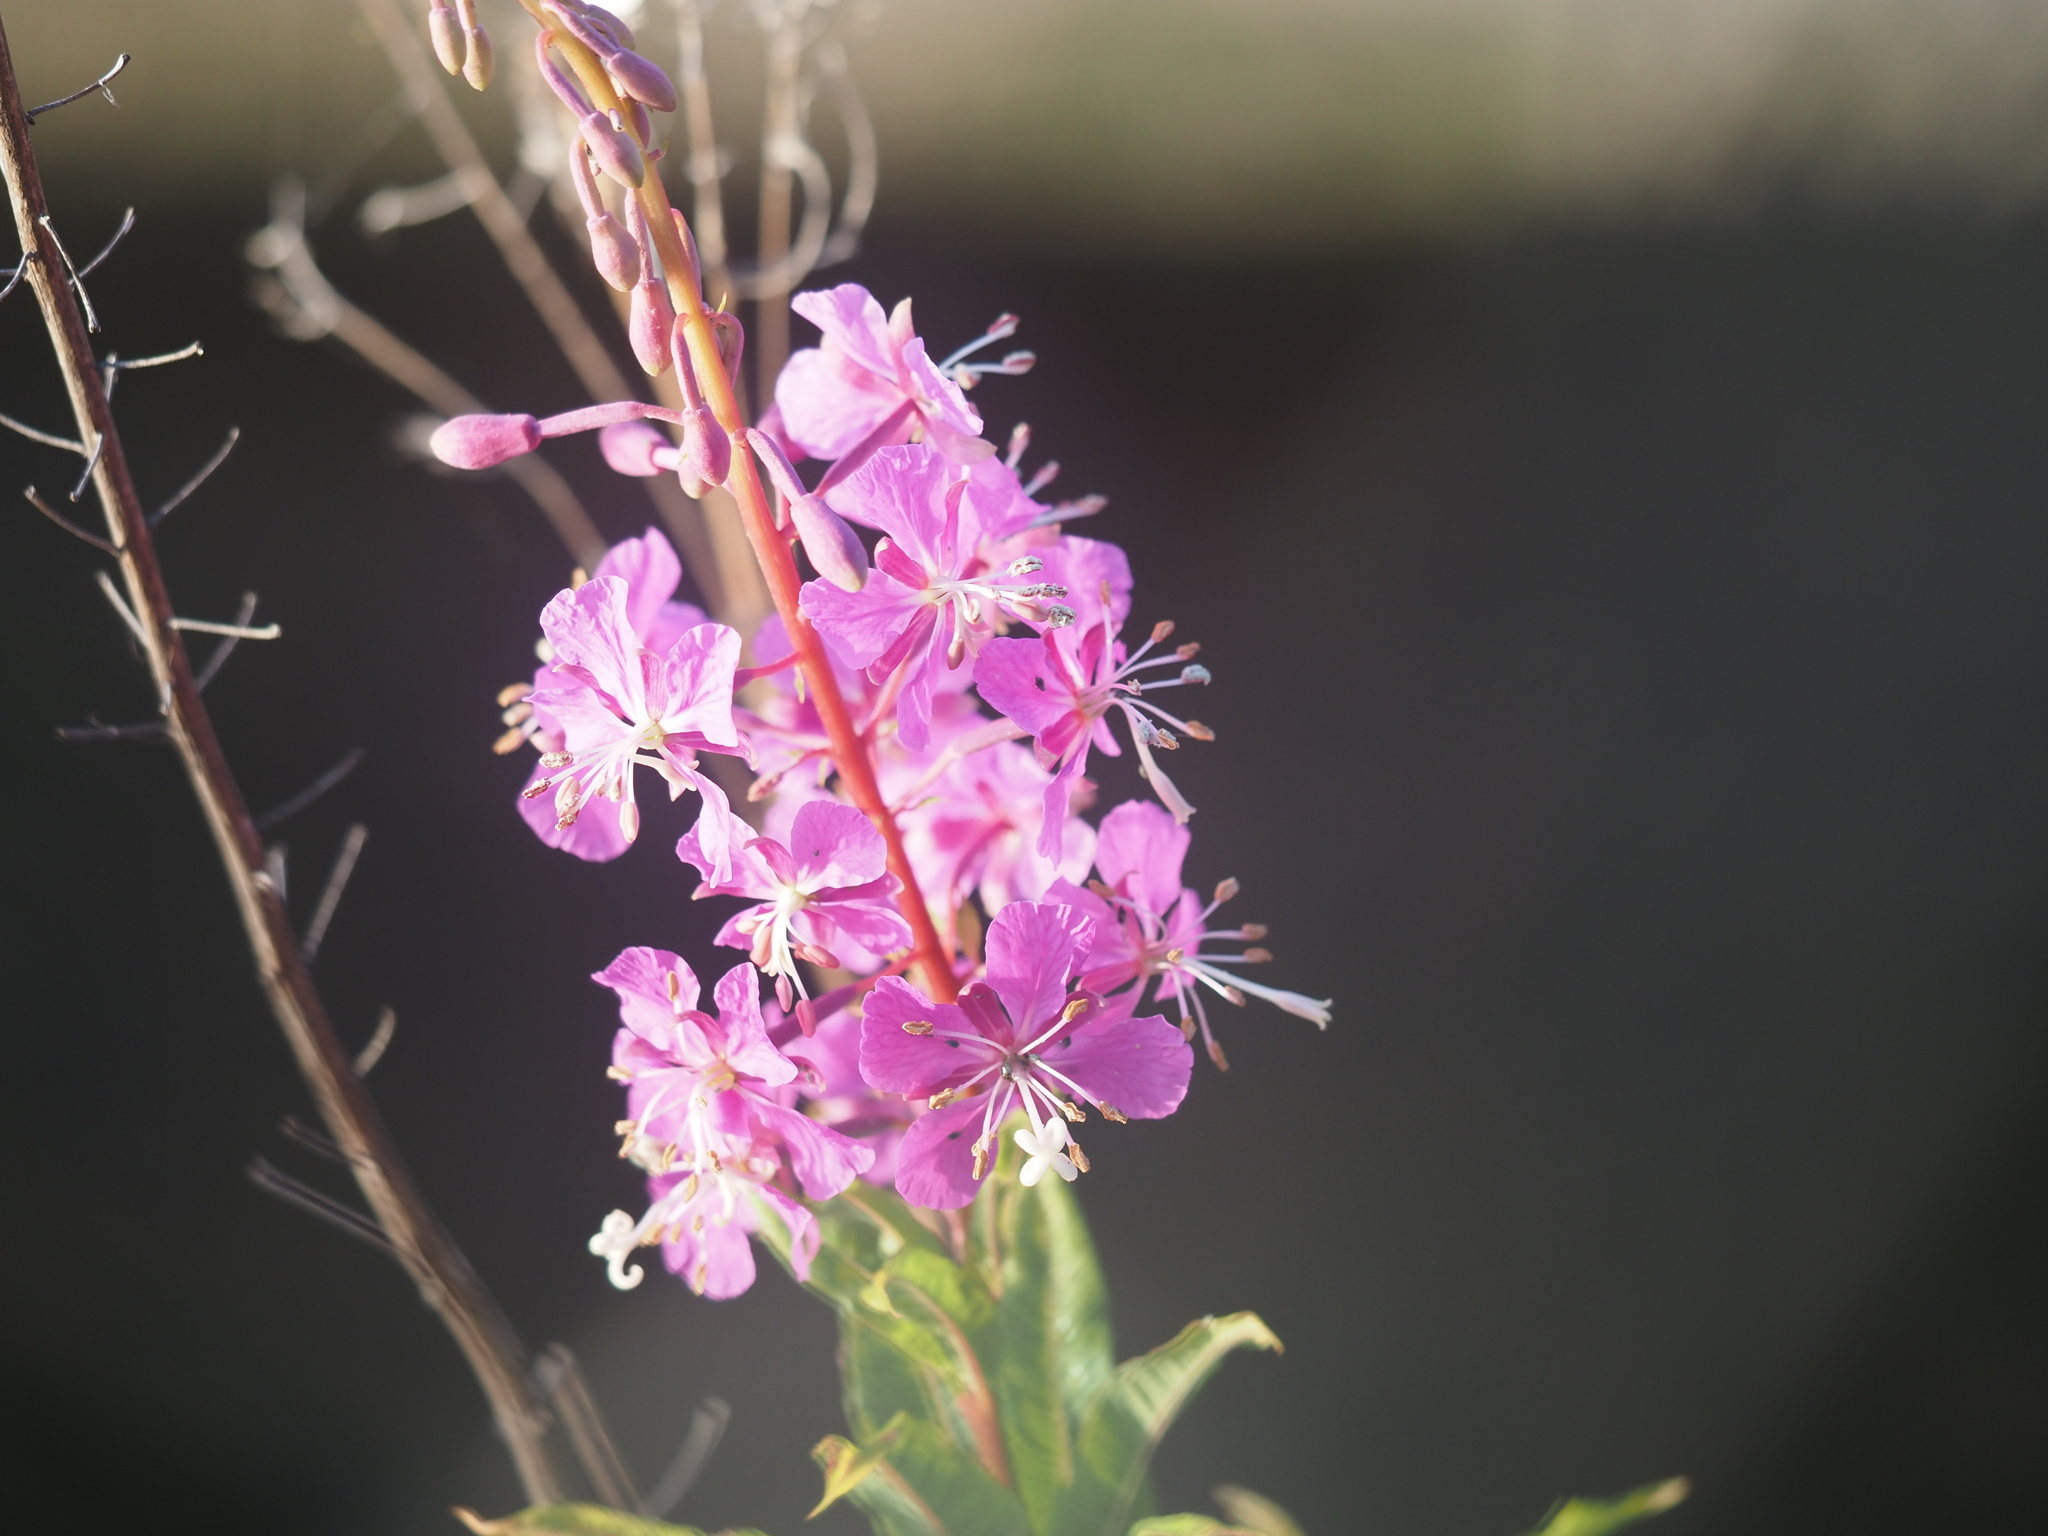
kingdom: Plantae
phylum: Tracheophyta
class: Magnoliopsida
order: Myrtales
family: Onagraceae
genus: Chamaenerion
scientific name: Chamaenerion angustifolium
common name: Fireweed
